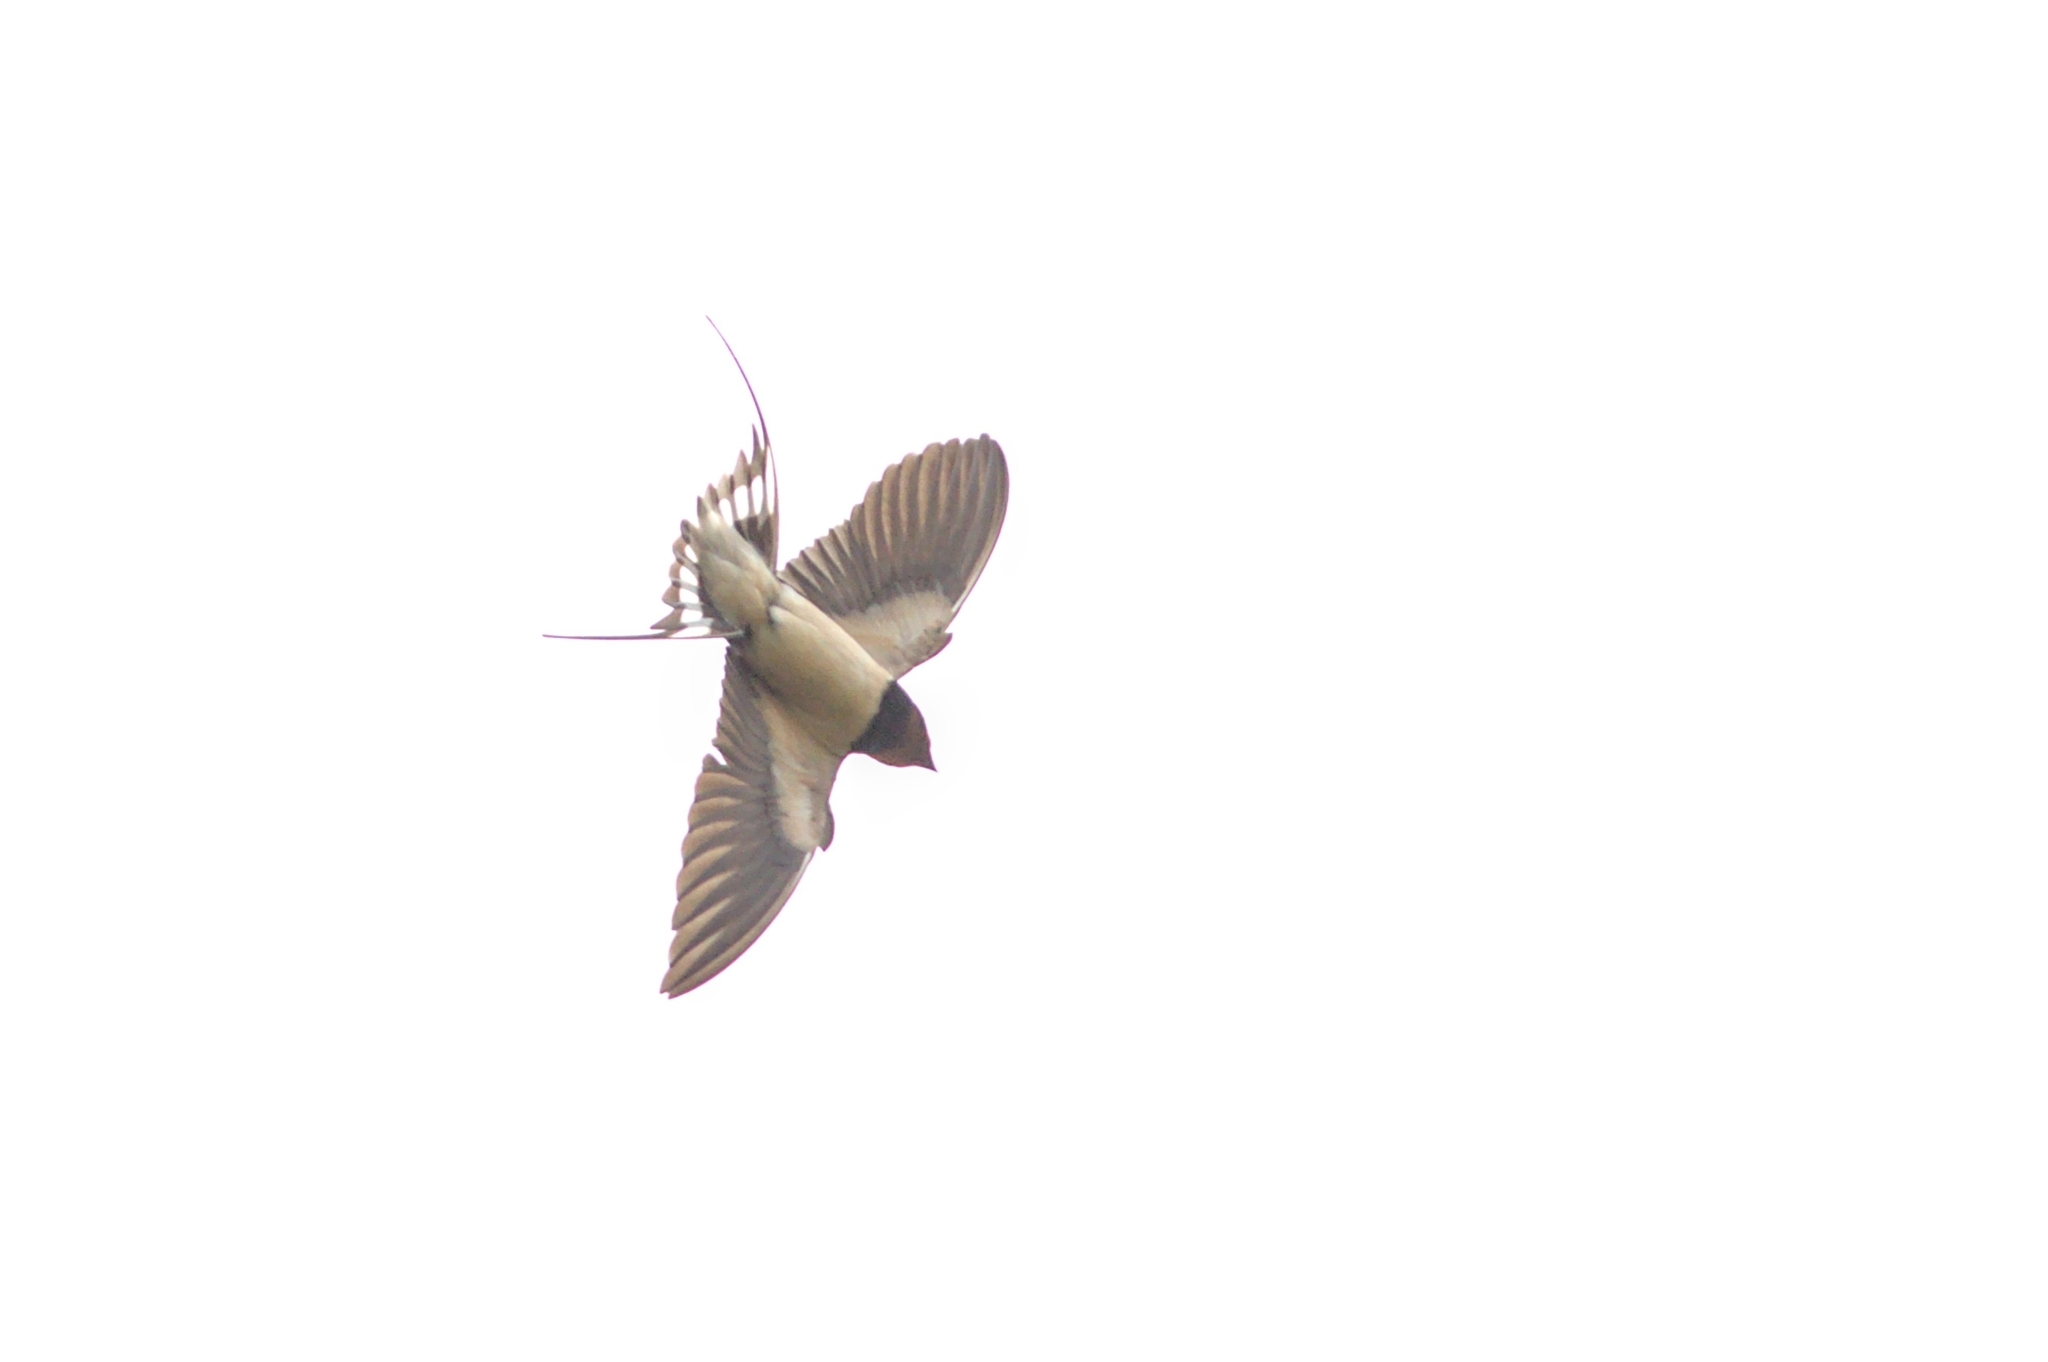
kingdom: Animalia
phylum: Chordata
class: Aves
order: Passeriformes
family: Hirundinidae
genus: Hirundo
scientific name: Hirundo rustica
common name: Barn swallow
